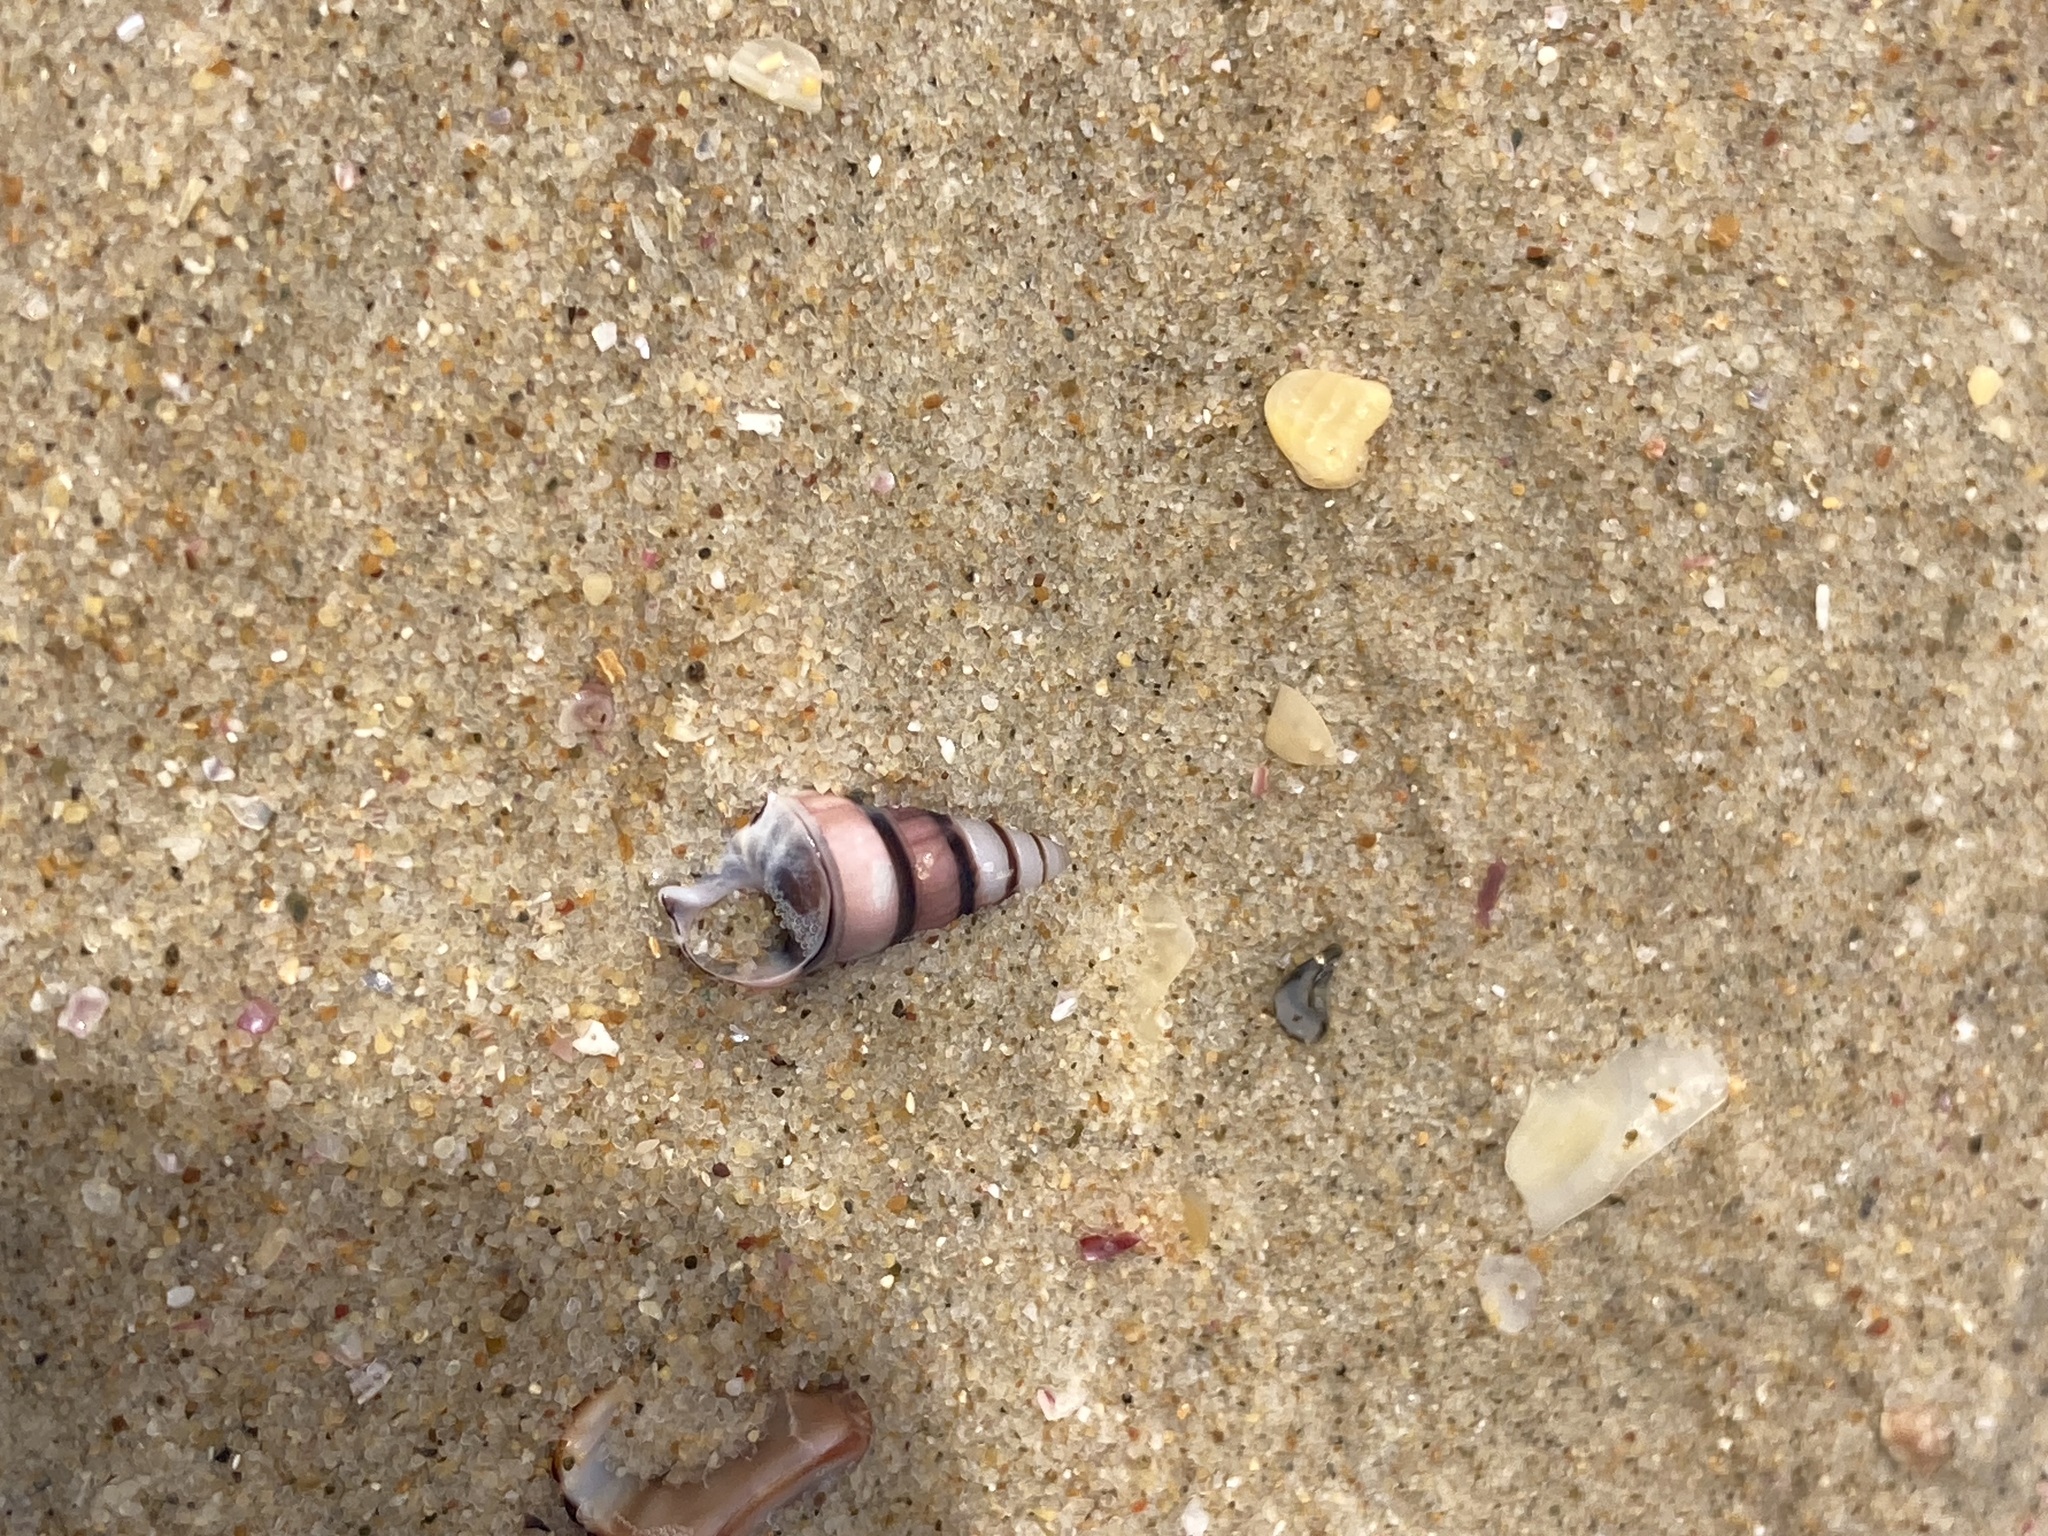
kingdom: Animalia
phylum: Mollusca
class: Gastropoda
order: Trochida
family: Trochidae
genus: Bankivia
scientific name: Bankivia fasciata
